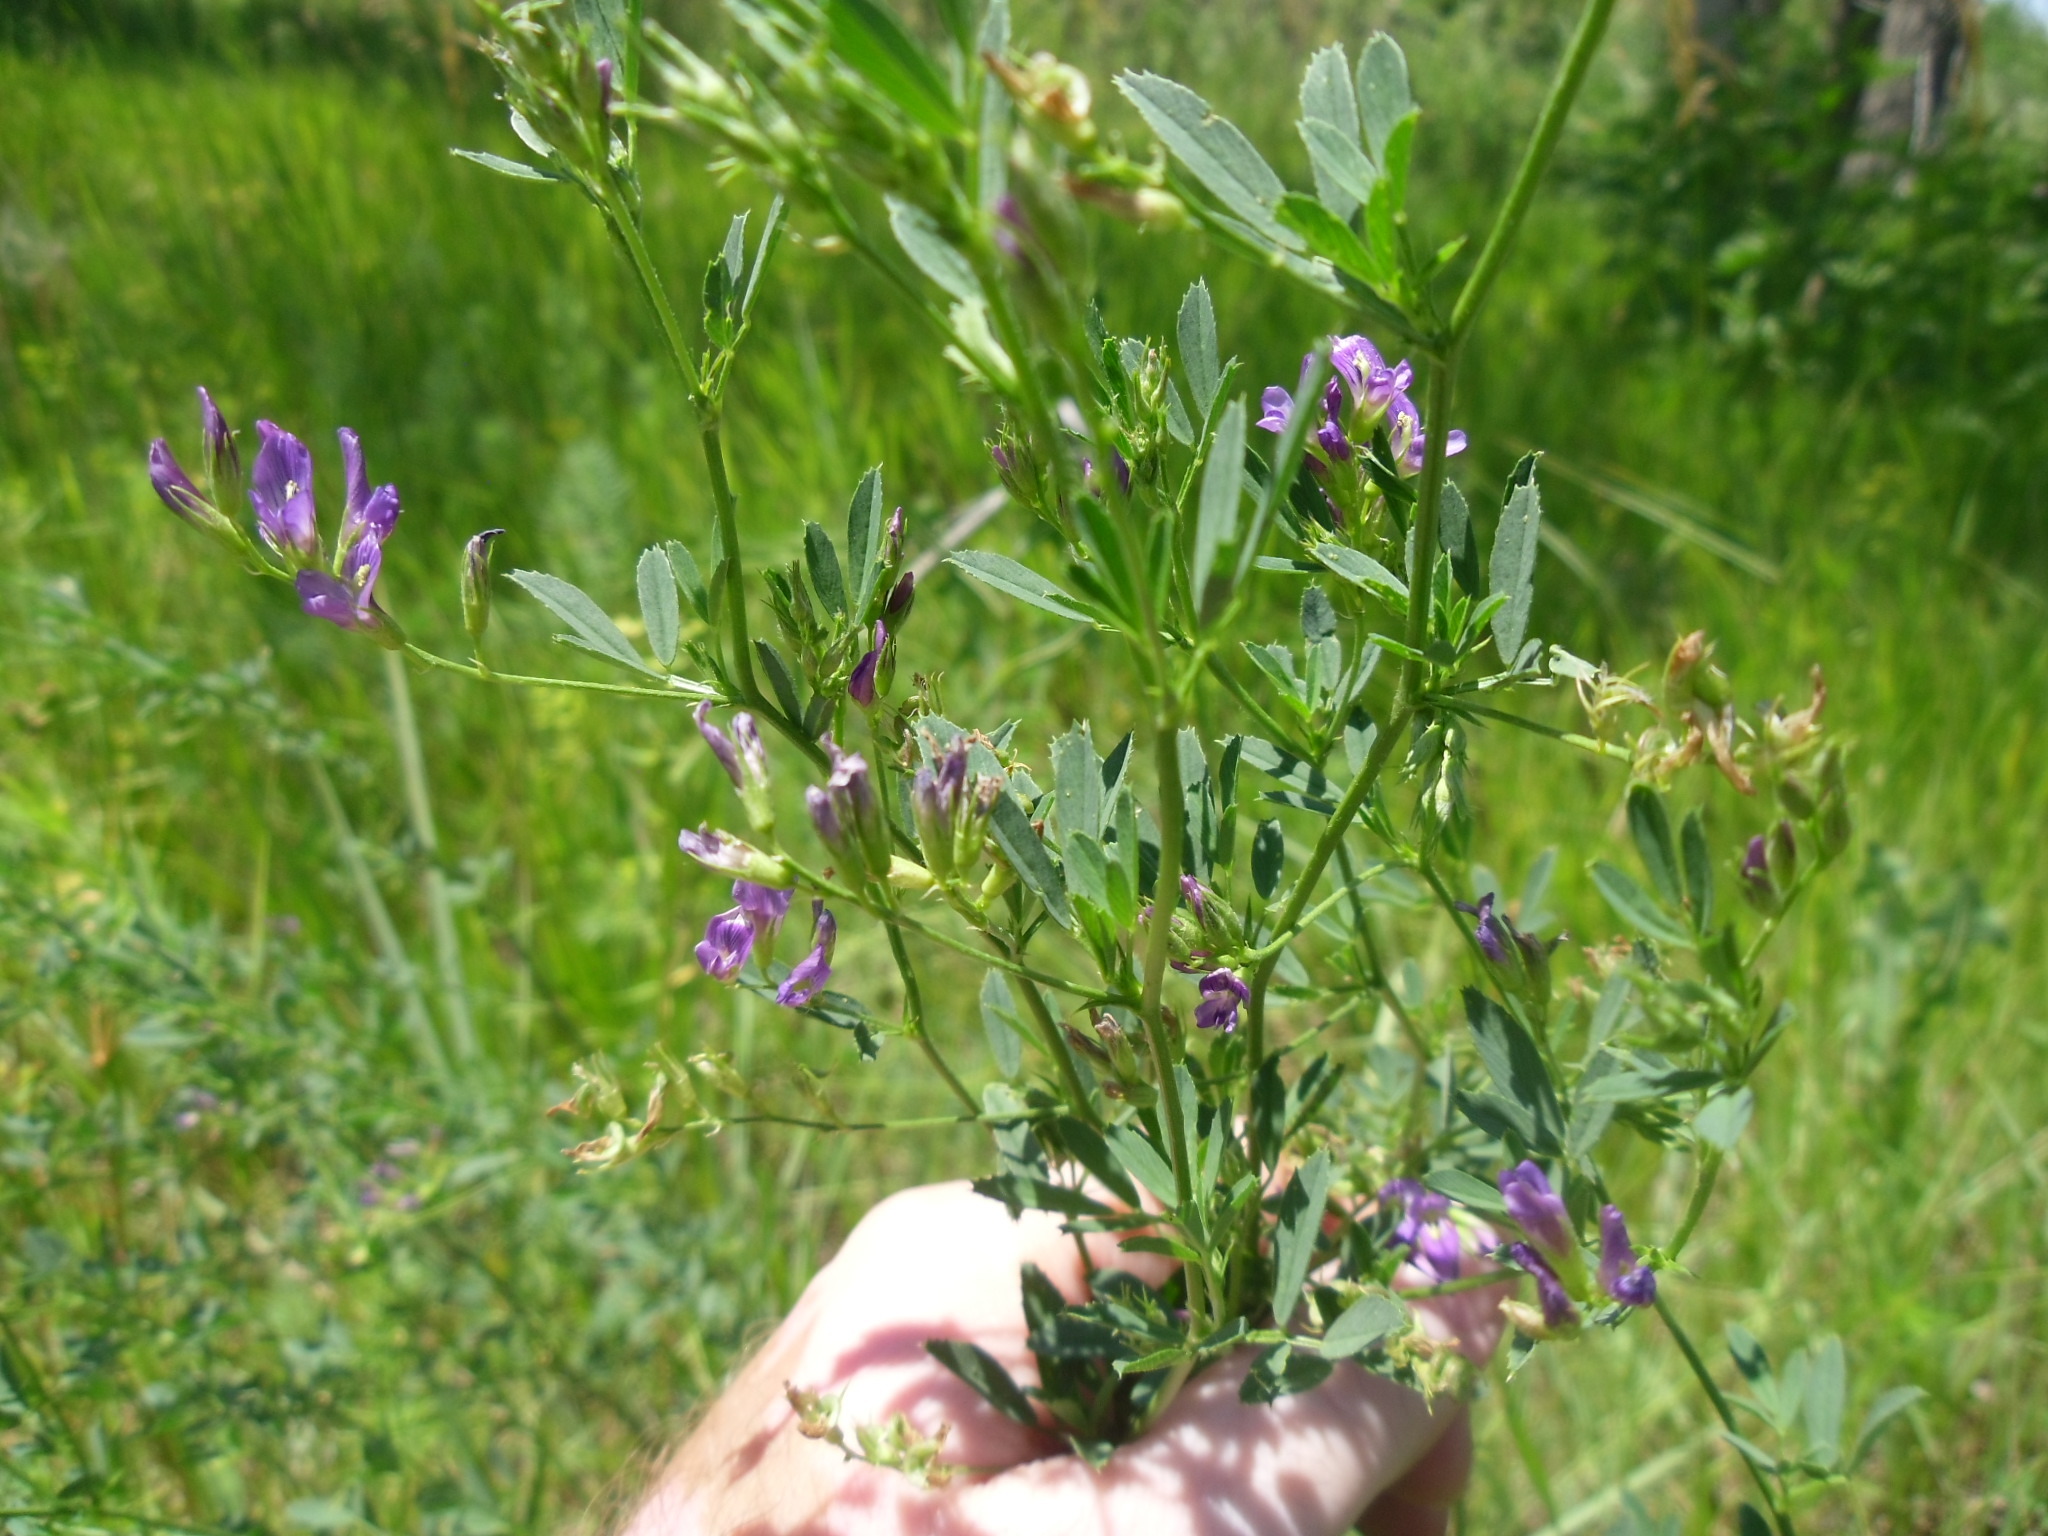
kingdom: Plantae
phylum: Tracheophyta
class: Magnoliopsida
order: Fabales
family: Fabaceae
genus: Medicago
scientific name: Medicago sativa
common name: Alfalfa
